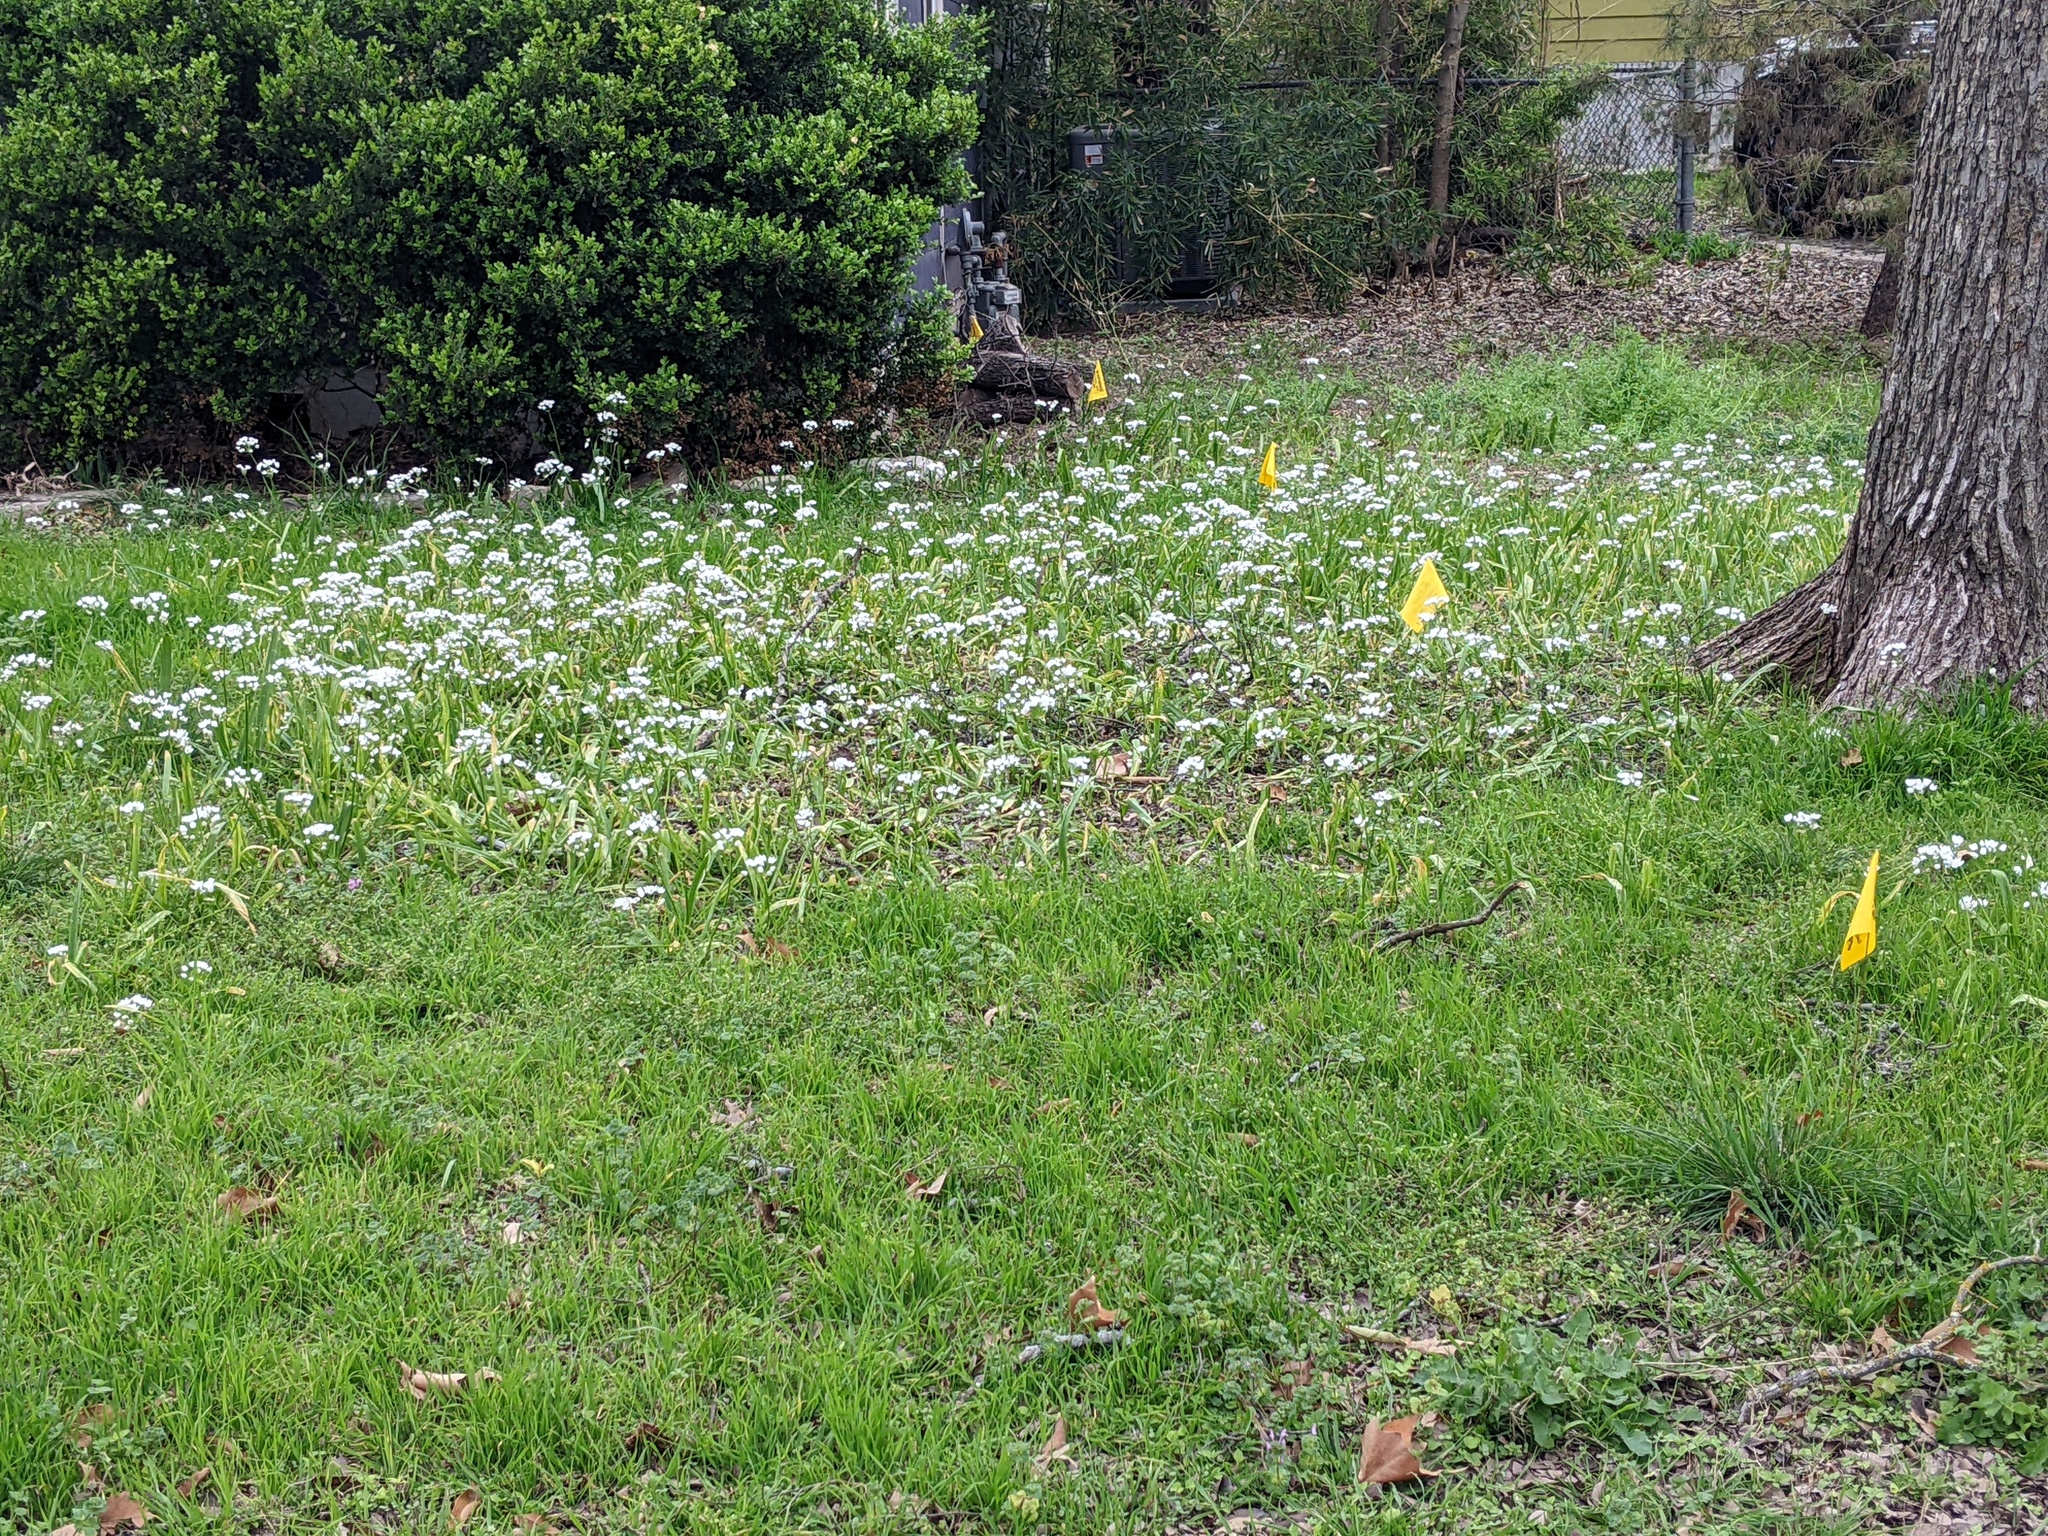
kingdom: Plantae
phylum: Tracheophyta
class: Liliopsida
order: Asparagales
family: Amaryllidaceae
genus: Allium
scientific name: Allium neapolitanum
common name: Neapolitan garlic
